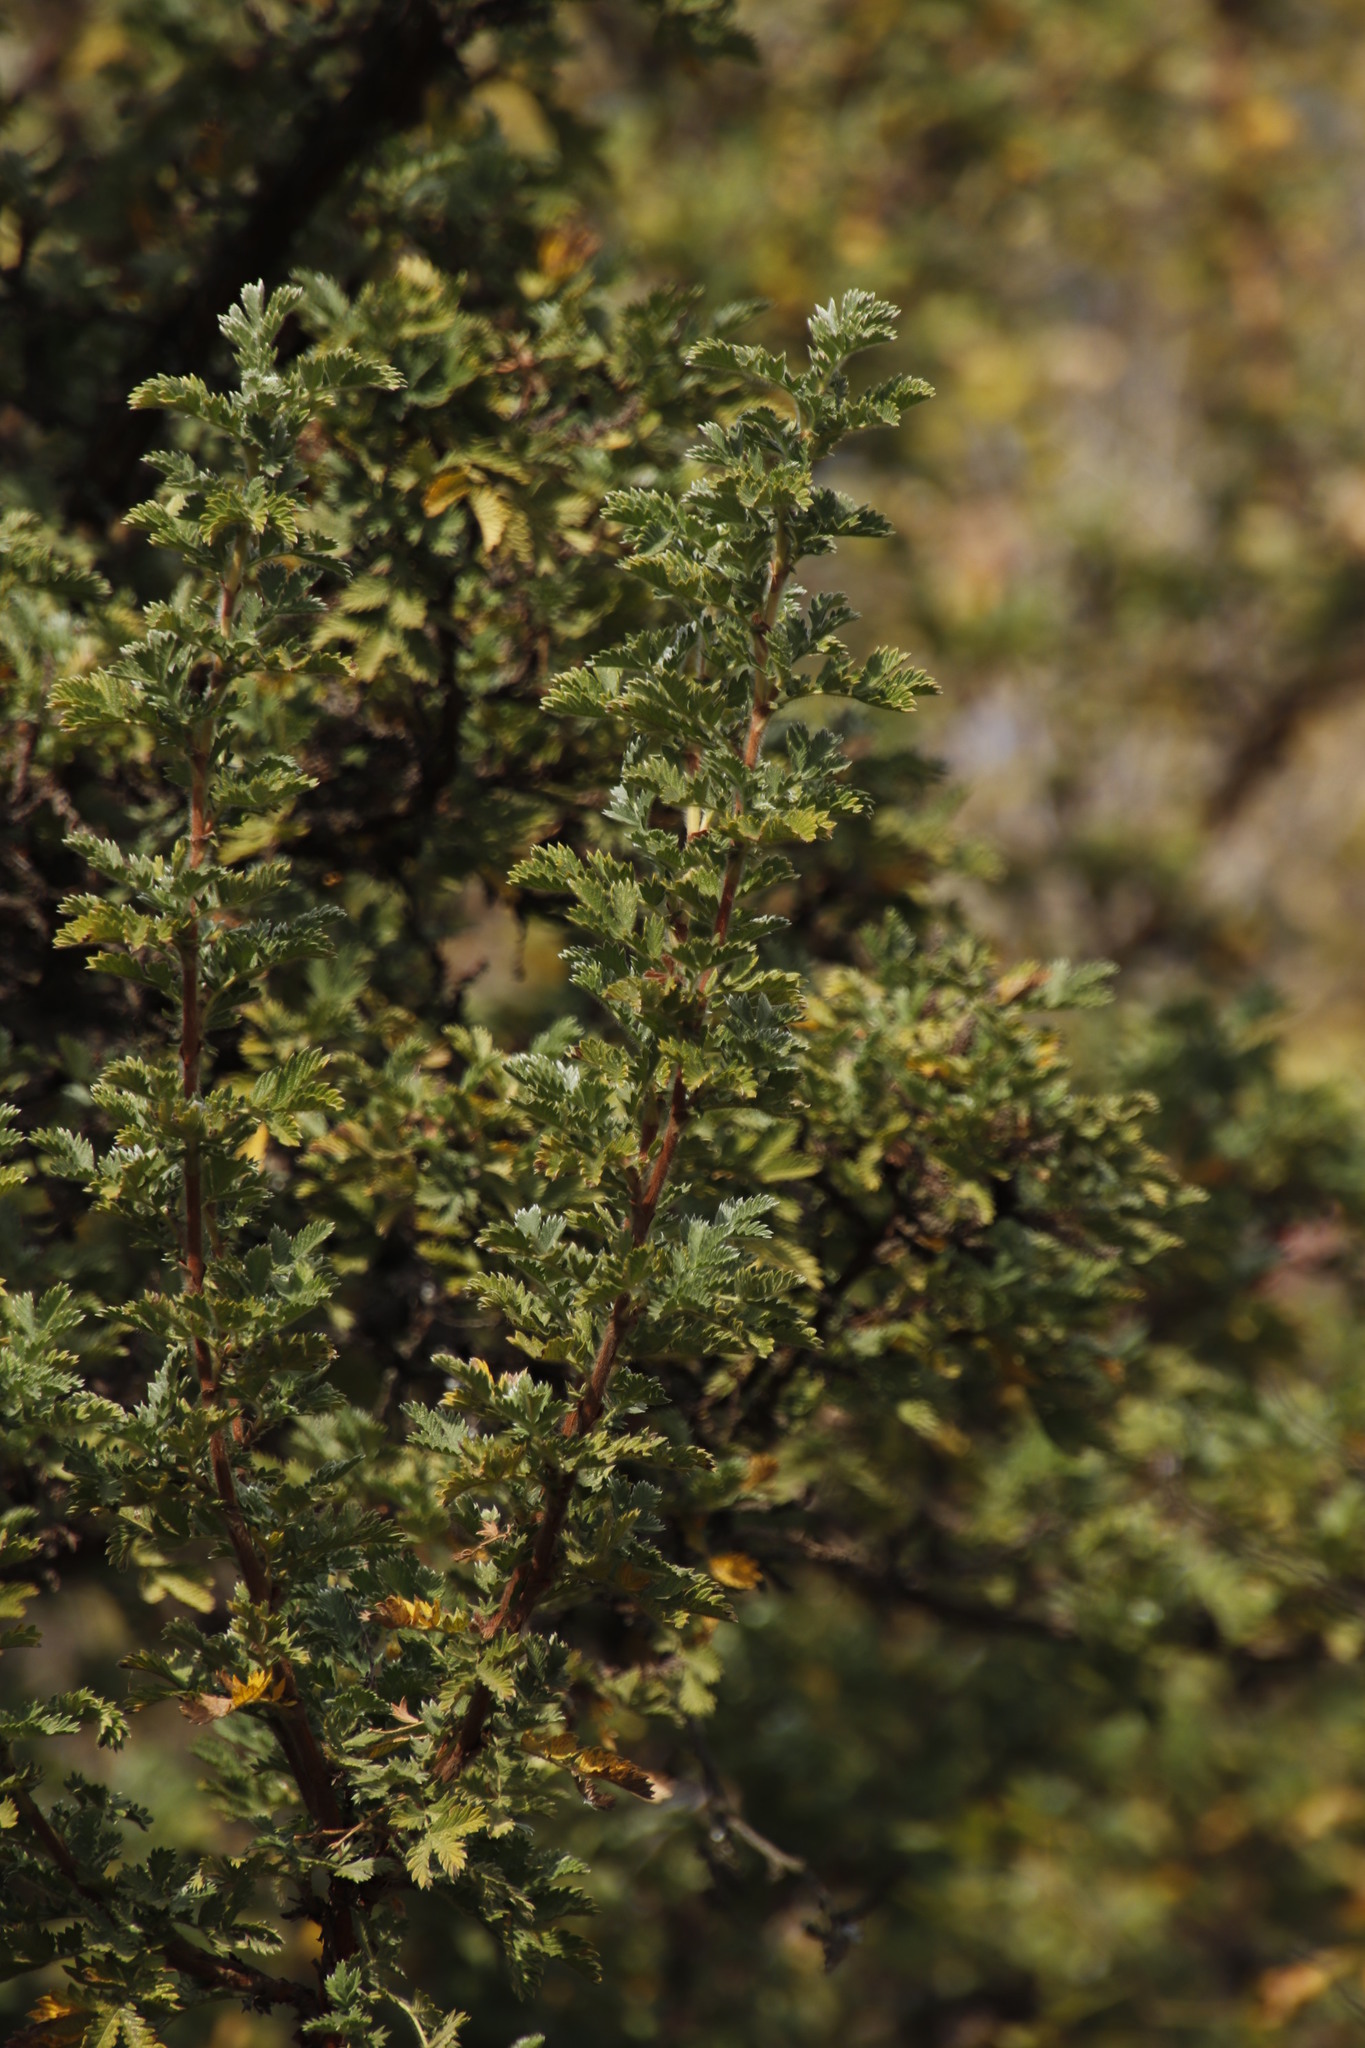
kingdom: Plantae
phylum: Tracheophyta
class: Magnoliopsida
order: Rosales
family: Rosaceae
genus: Leucosidea
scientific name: Leucosidea sericea
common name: Oldwood
